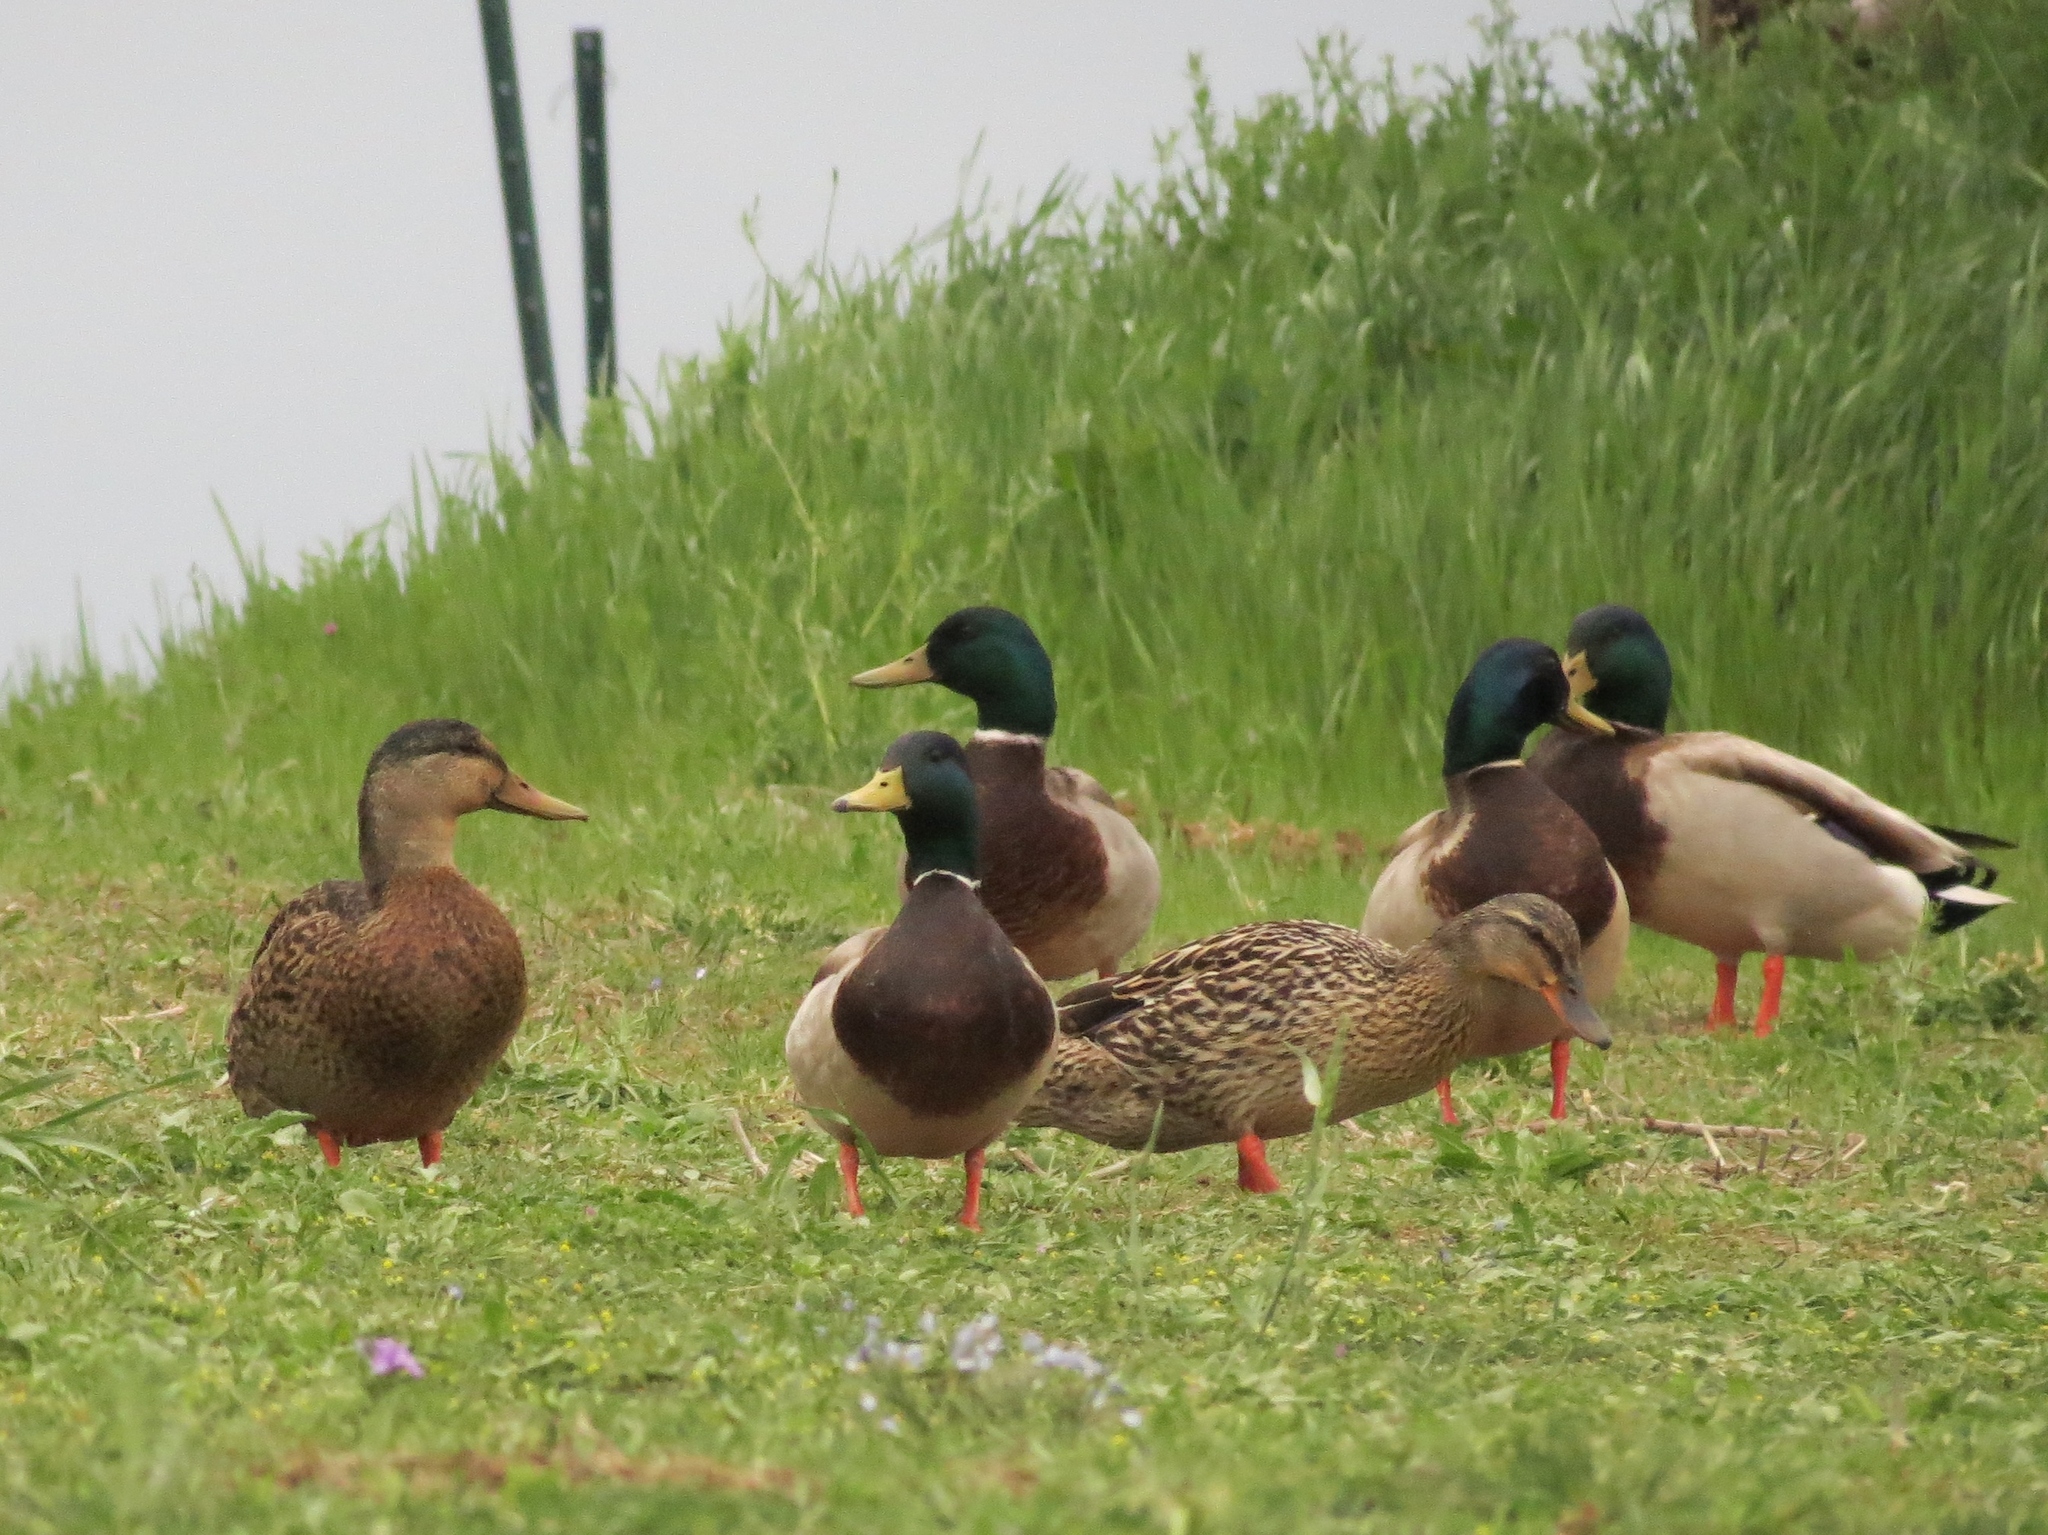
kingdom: Animalia
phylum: Chordata
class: Aves
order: Anseriformes
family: Anatidae
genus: Anas
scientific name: Anas platyrhynchos
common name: Mallard
